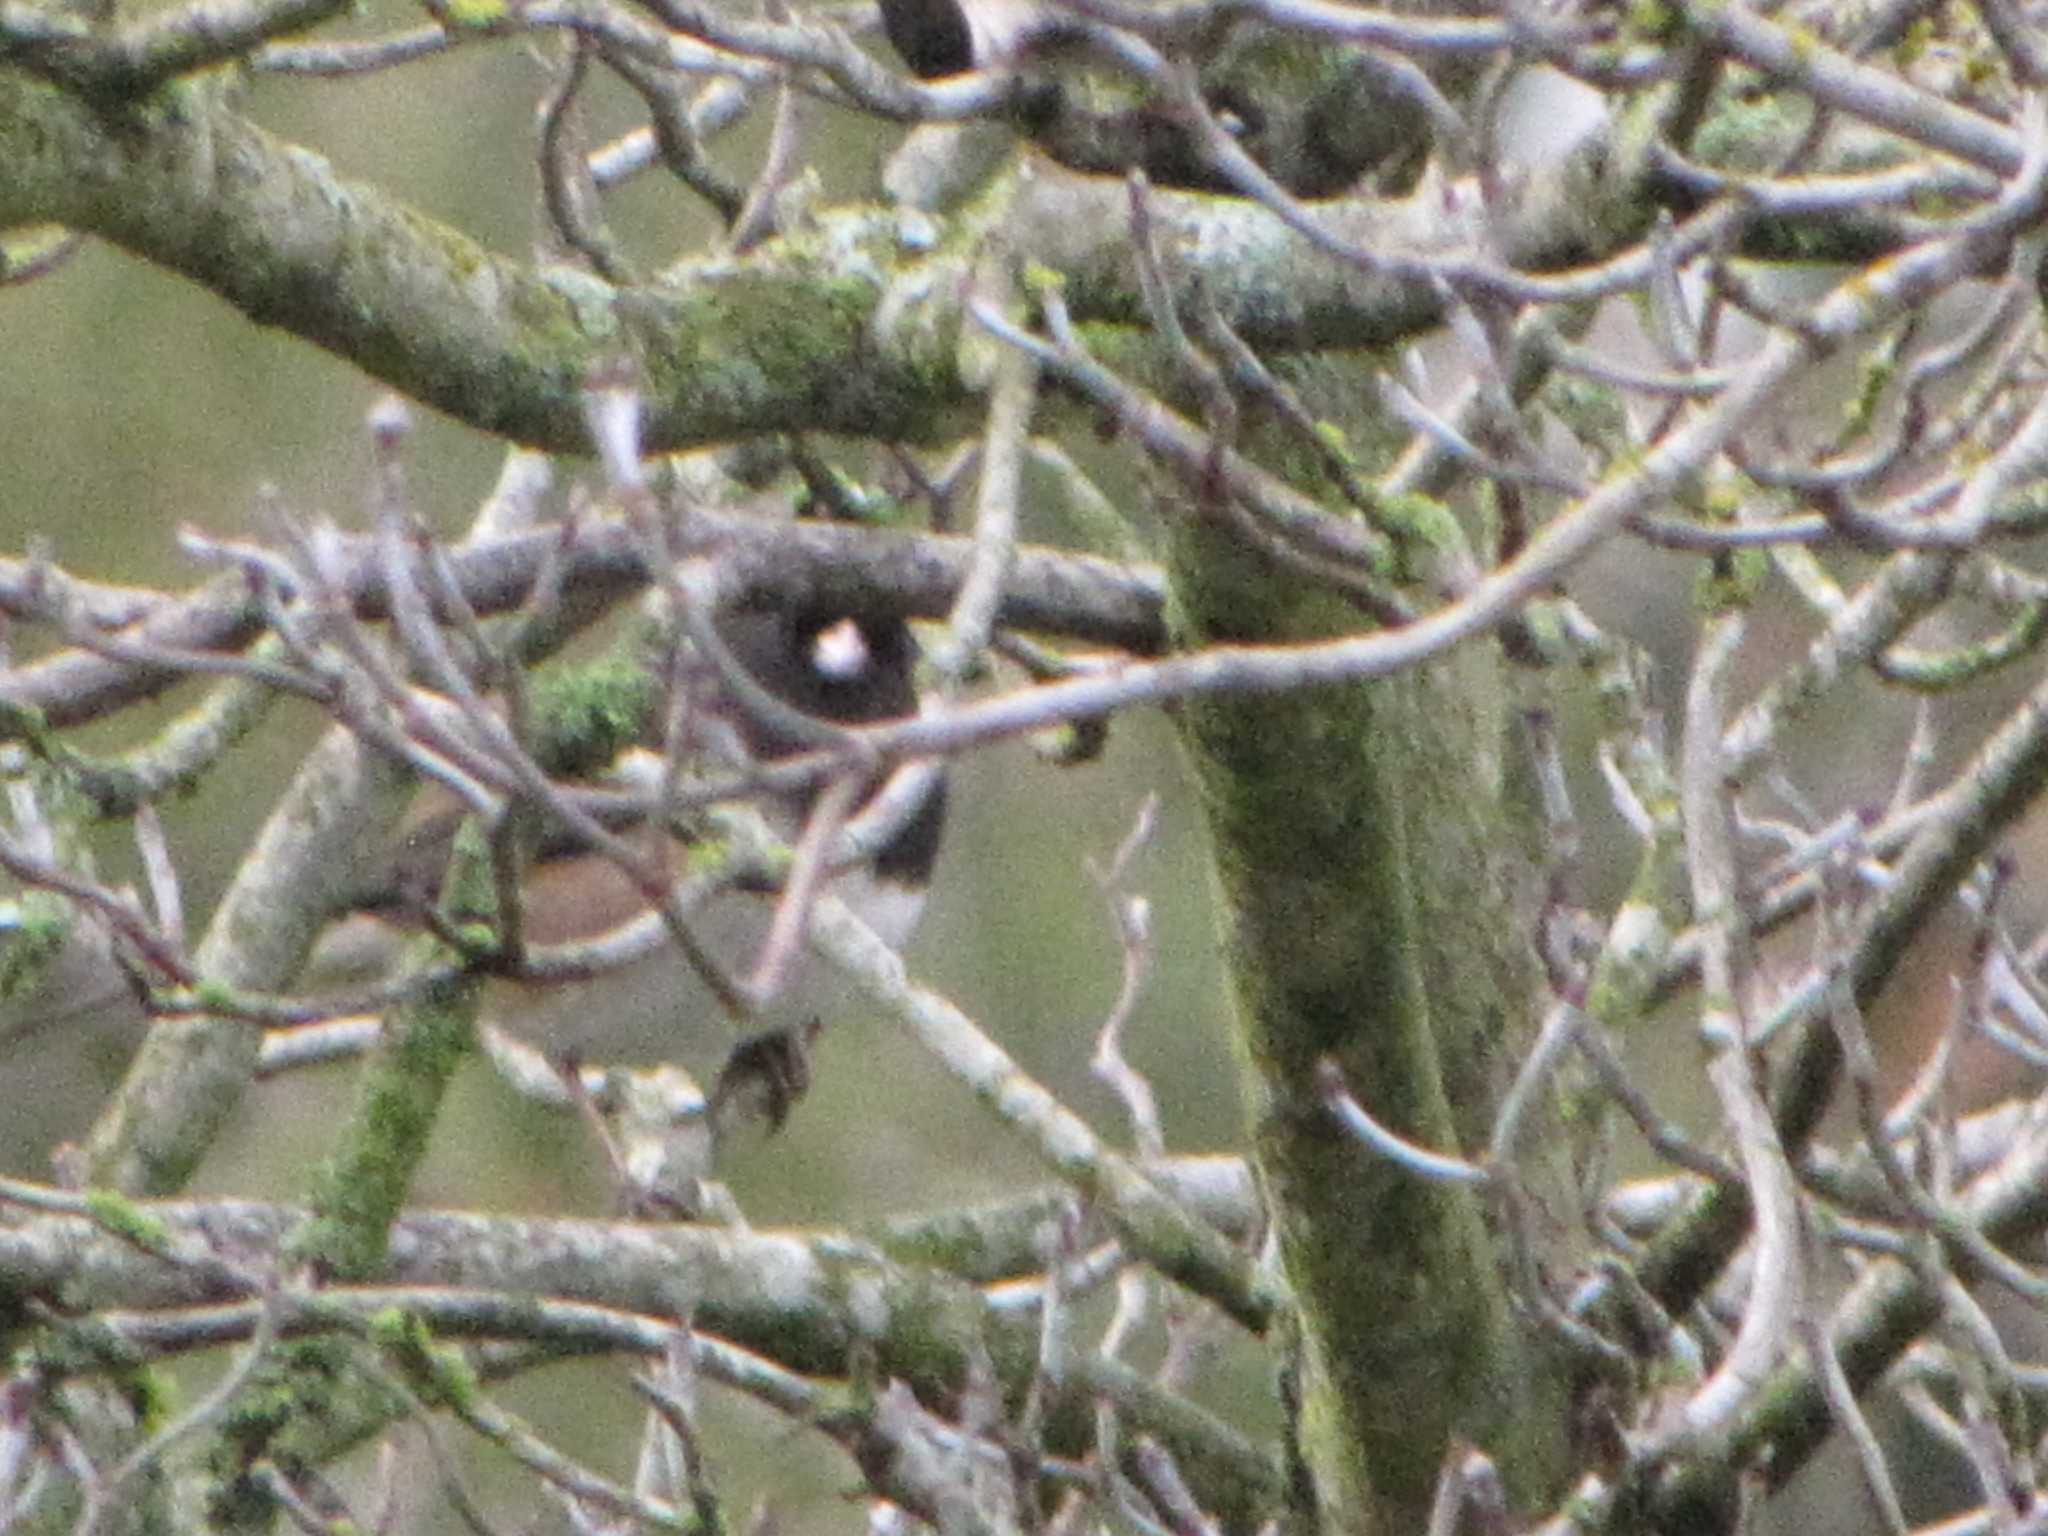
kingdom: Animalia
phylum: Chordata
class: Aves
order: Passeriformes
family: Passerellidae
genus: Junco
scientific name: Junco hyemalis
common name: Dark-eyed junco
